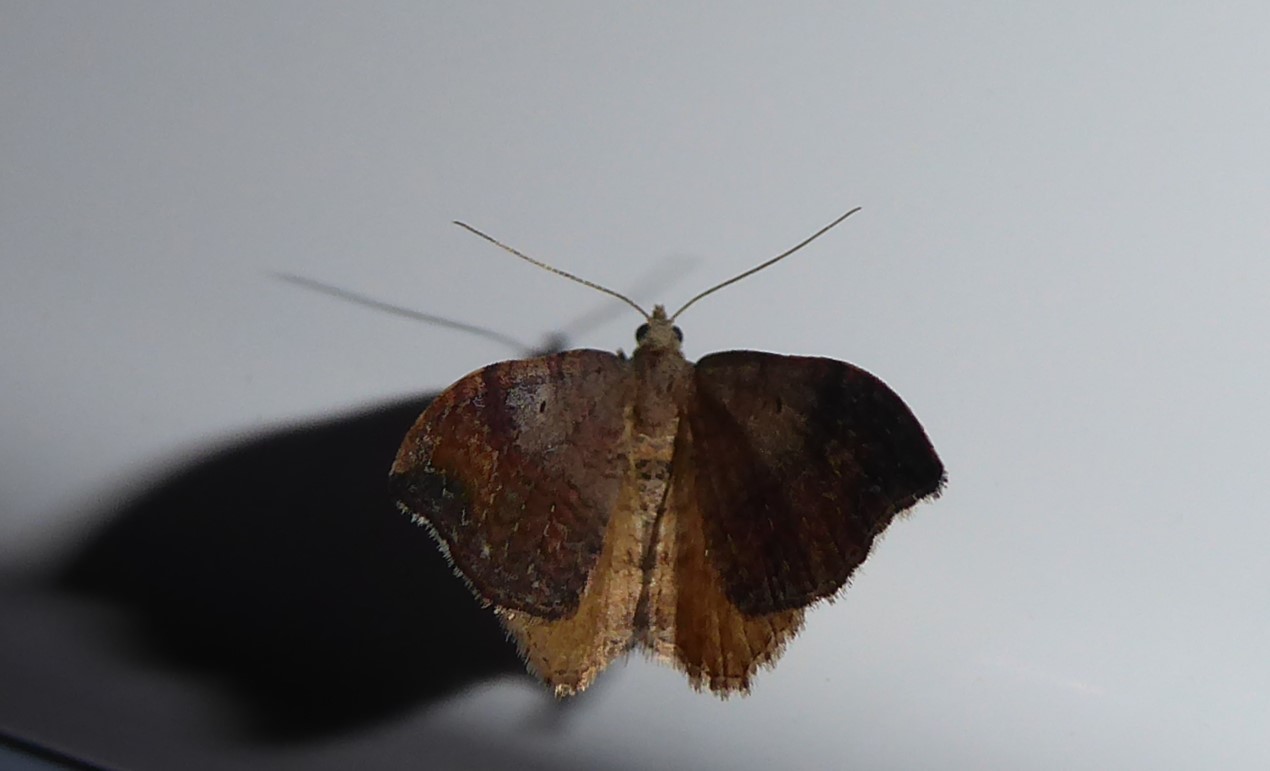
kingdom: Animalia
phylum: Arthropoda
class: Insecta
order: Lepidoptera
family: Geometridae
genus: Homodotis
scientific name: Homodotis megaspilata
